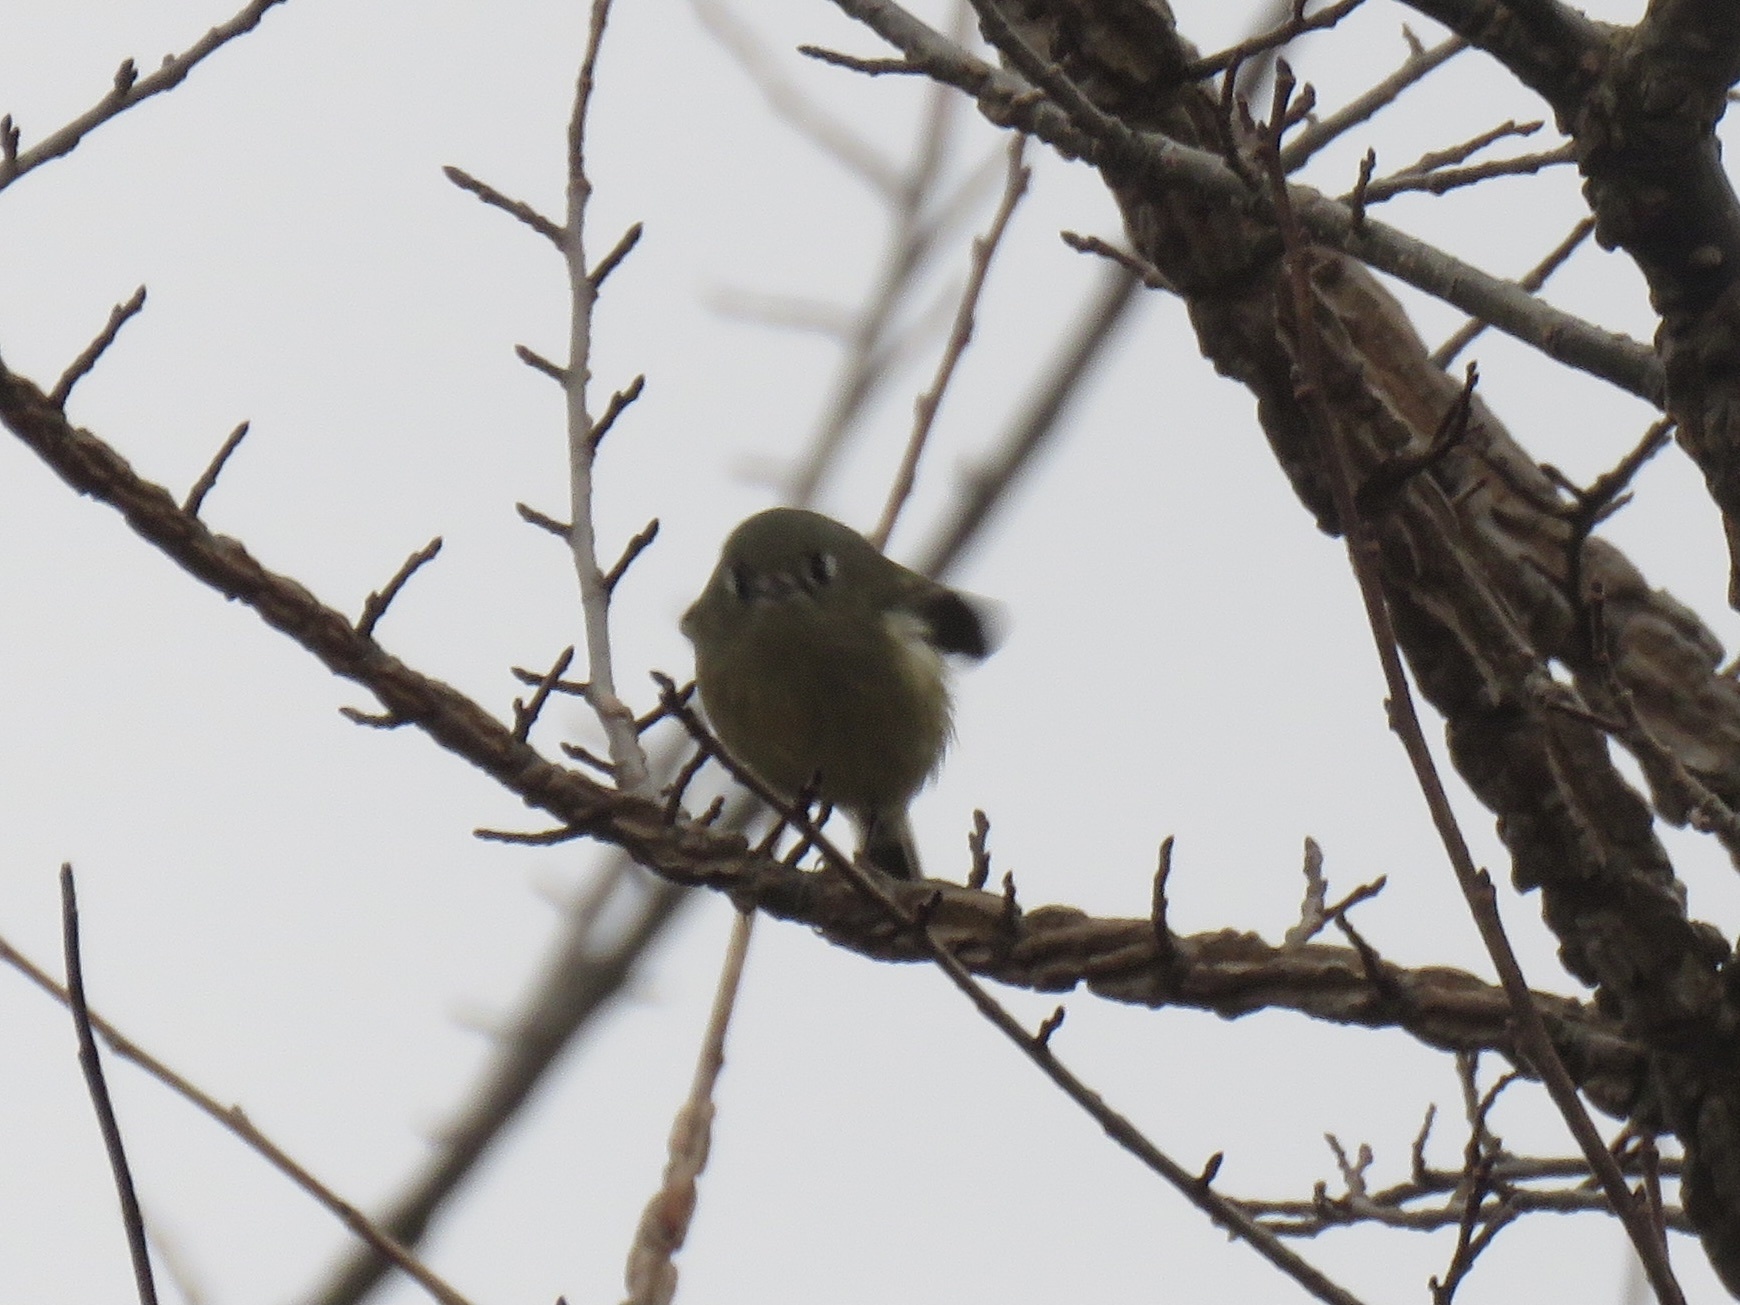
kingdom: Animalia
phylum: Chordata
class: Aves
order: Passeriformes
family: Regulidae
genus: Regulus
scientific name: Regulus calendula
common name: Ruby-crowned kinglet
